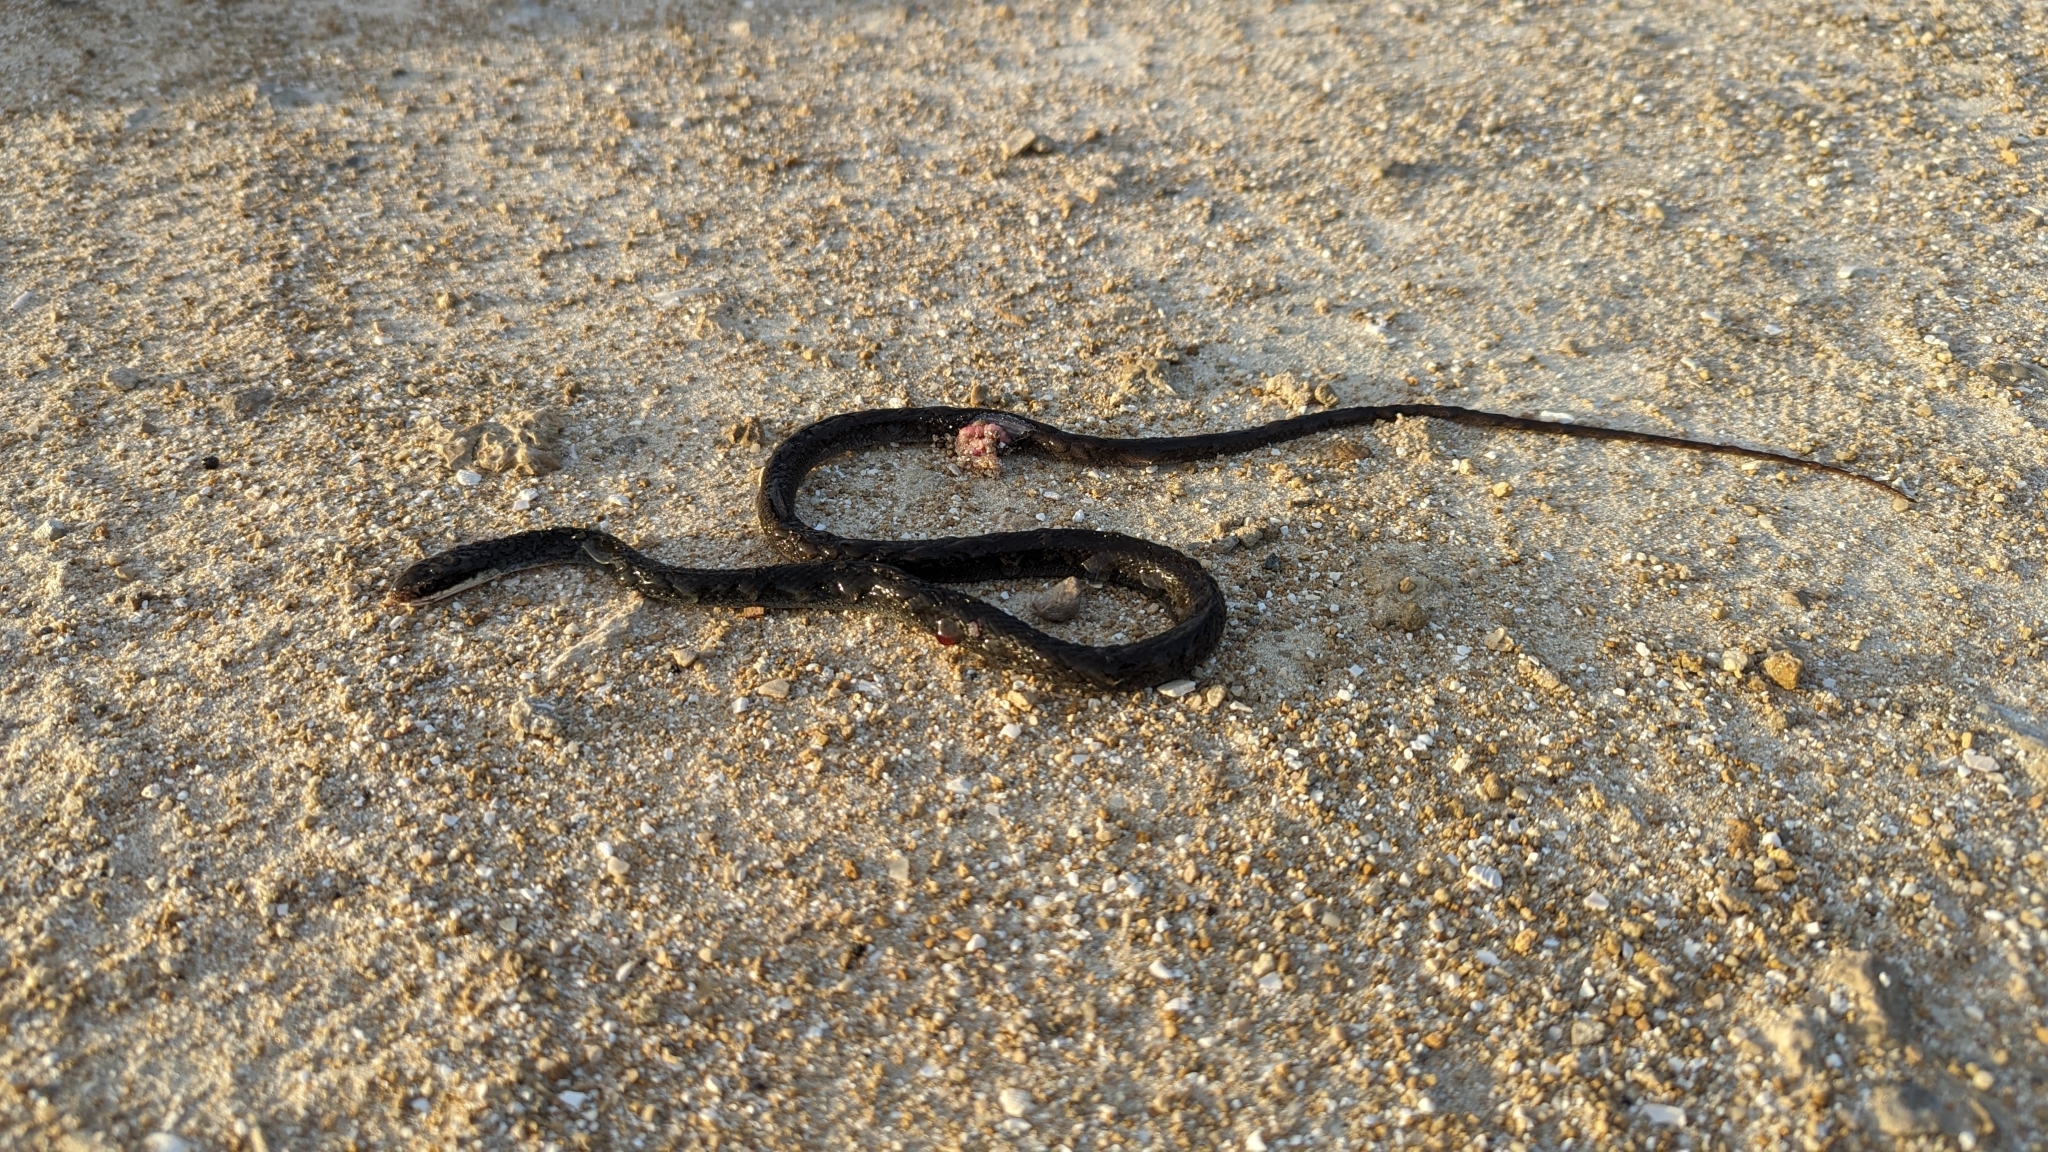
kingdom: Animalia
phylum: Chordata
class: Squamata
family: Colubridae
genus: Coluber
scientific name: Coluber constrictor
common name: Eastern racer
